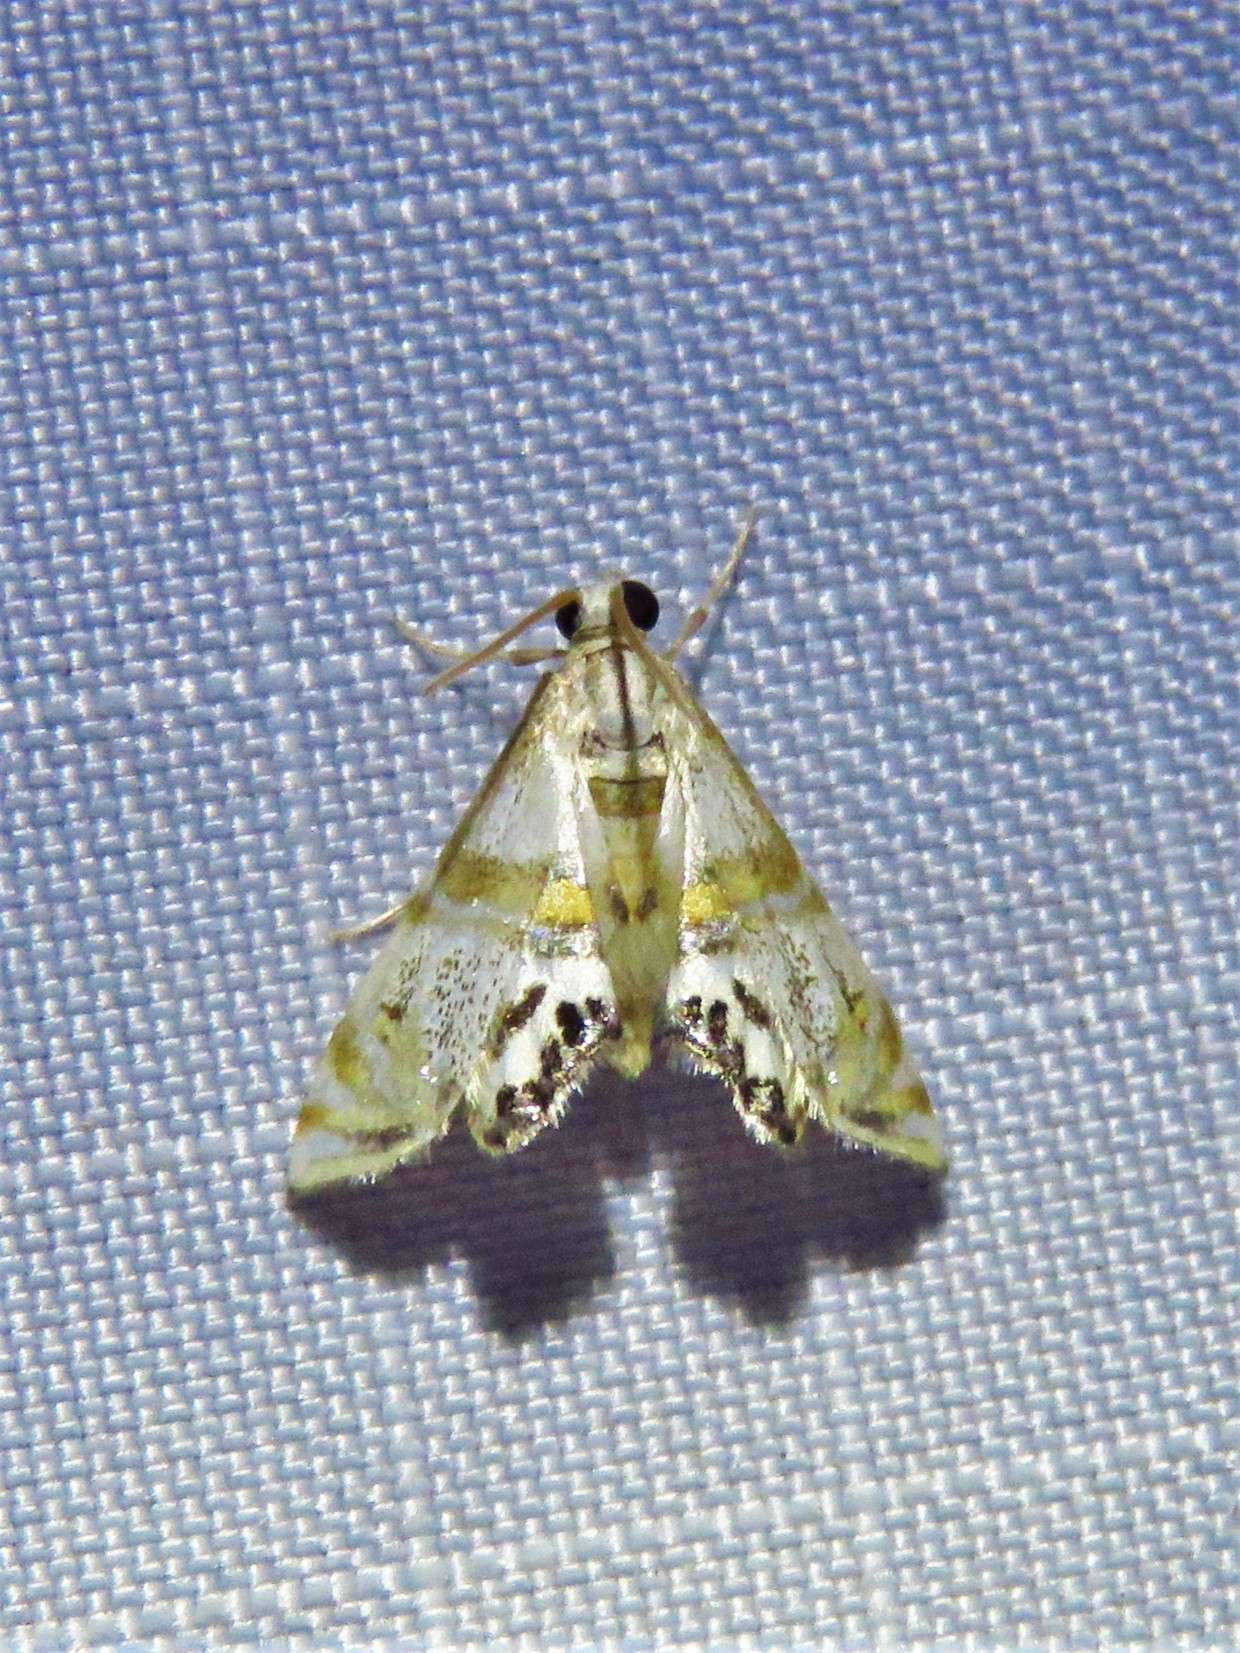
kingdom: Animalia
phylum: Arthropoda
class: Insecta
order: Lepidoptera
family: Crambidae
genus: Petrophila
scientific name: Petrophila bifascialis
